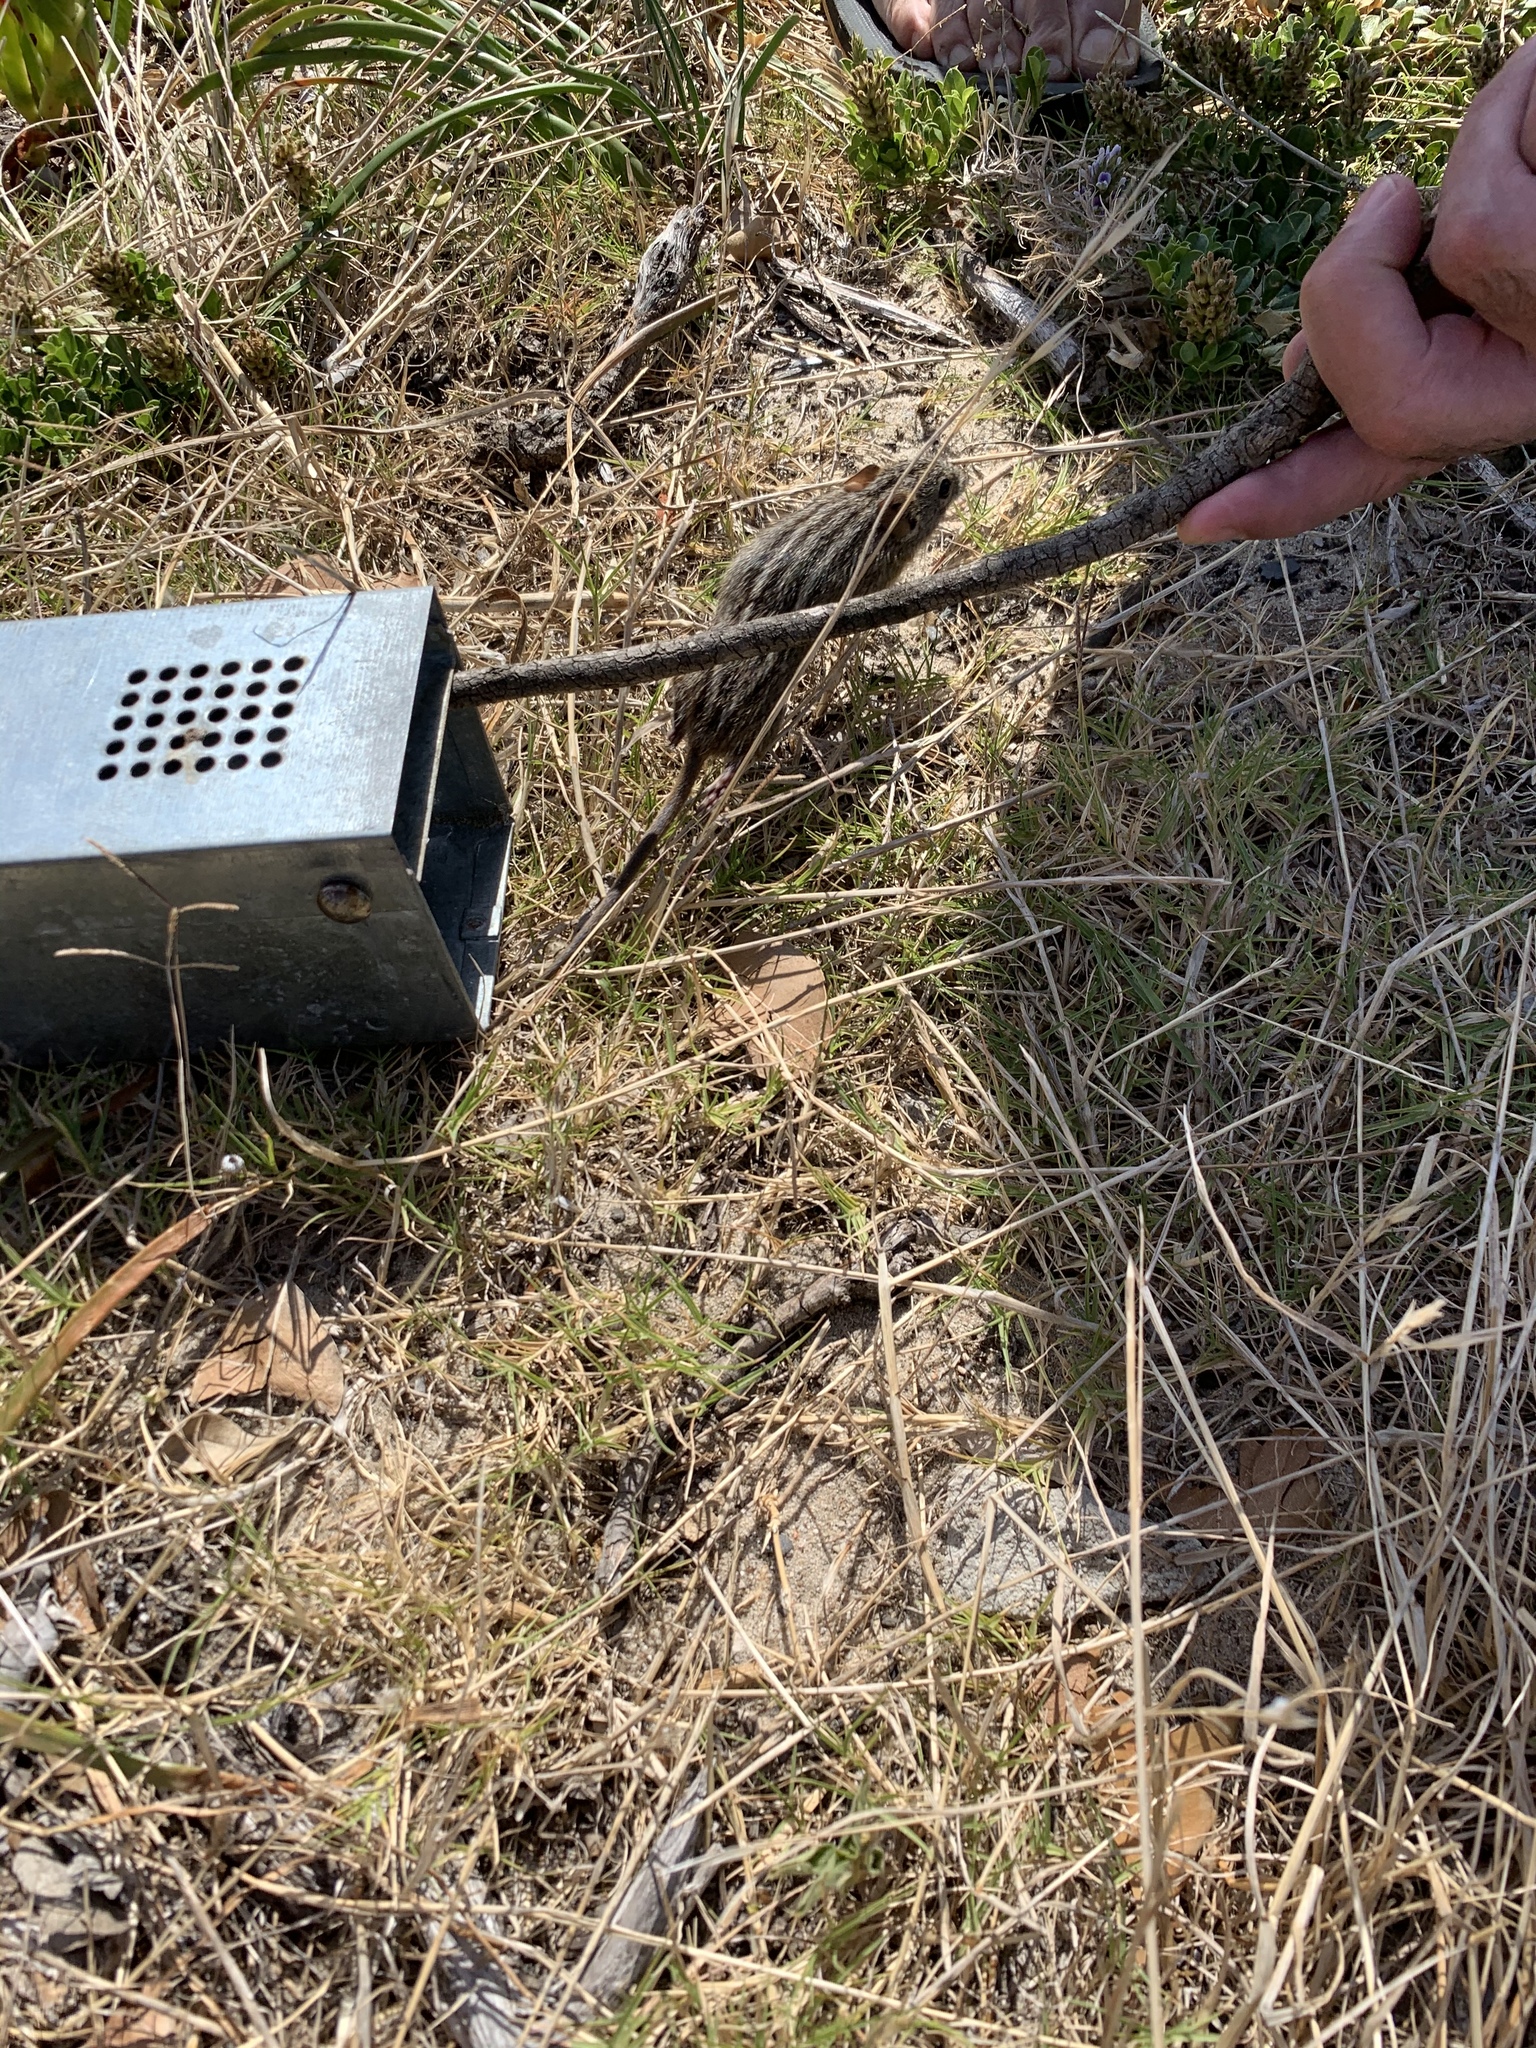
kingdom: Animalia
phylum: Chordata
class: Mammalia
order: Rodentia
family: Muridae
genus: Rhabdomys
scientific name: Rhabdomys pumilio
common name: Xeric four-striped grass rat
